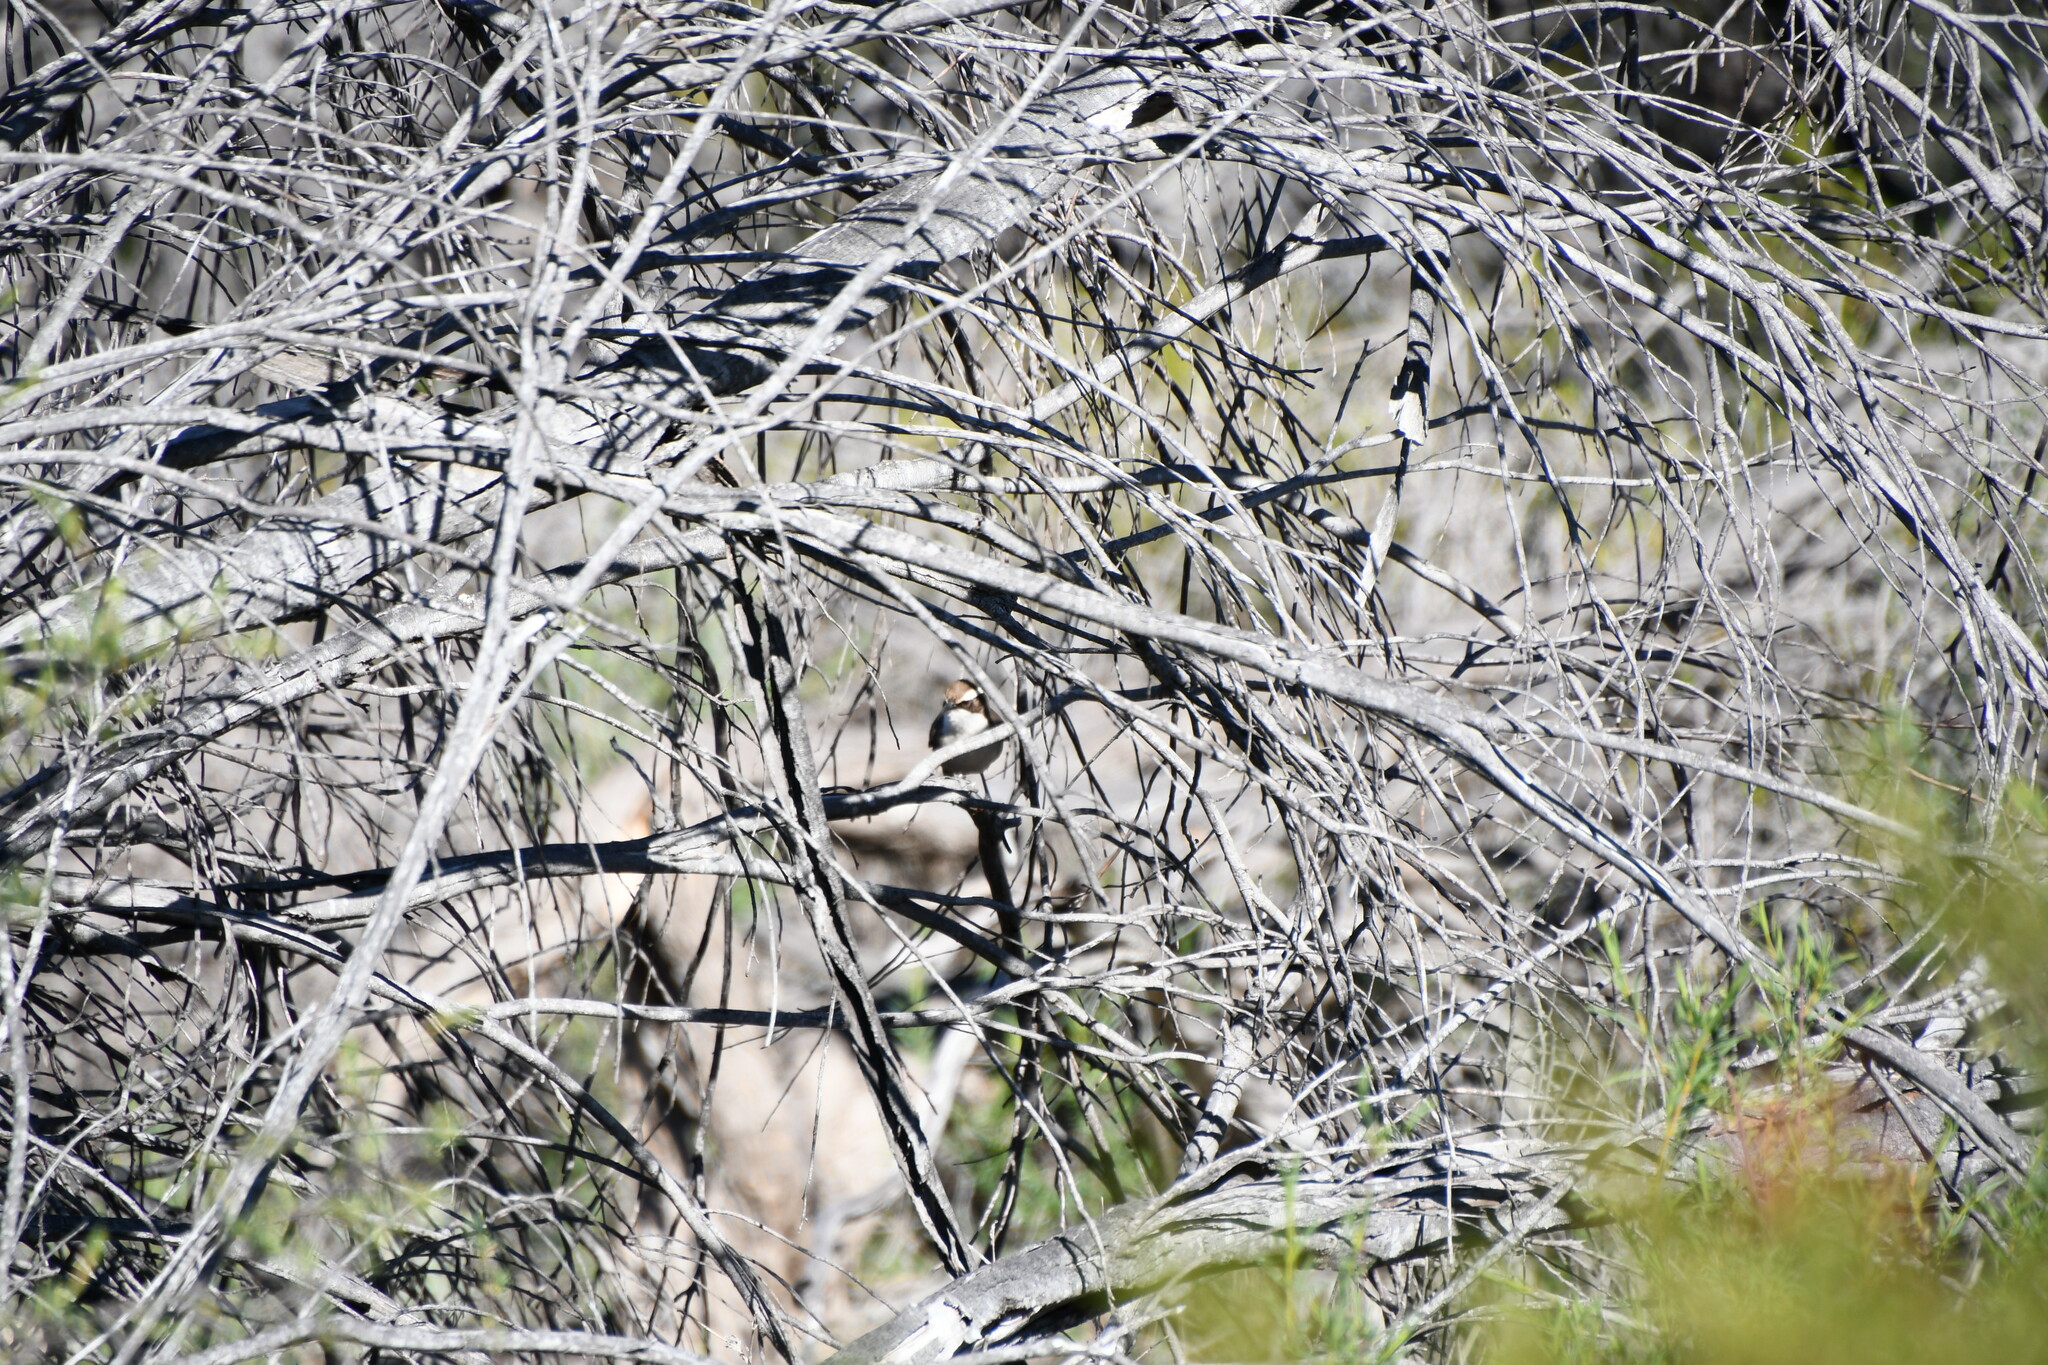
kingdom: Animalia
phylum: Chordata
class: Aves
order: Passeriformes
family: Pomatostomidae
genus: Pomatostomus
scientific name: Pomatostomus superciliosus
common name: White-browed babbler
